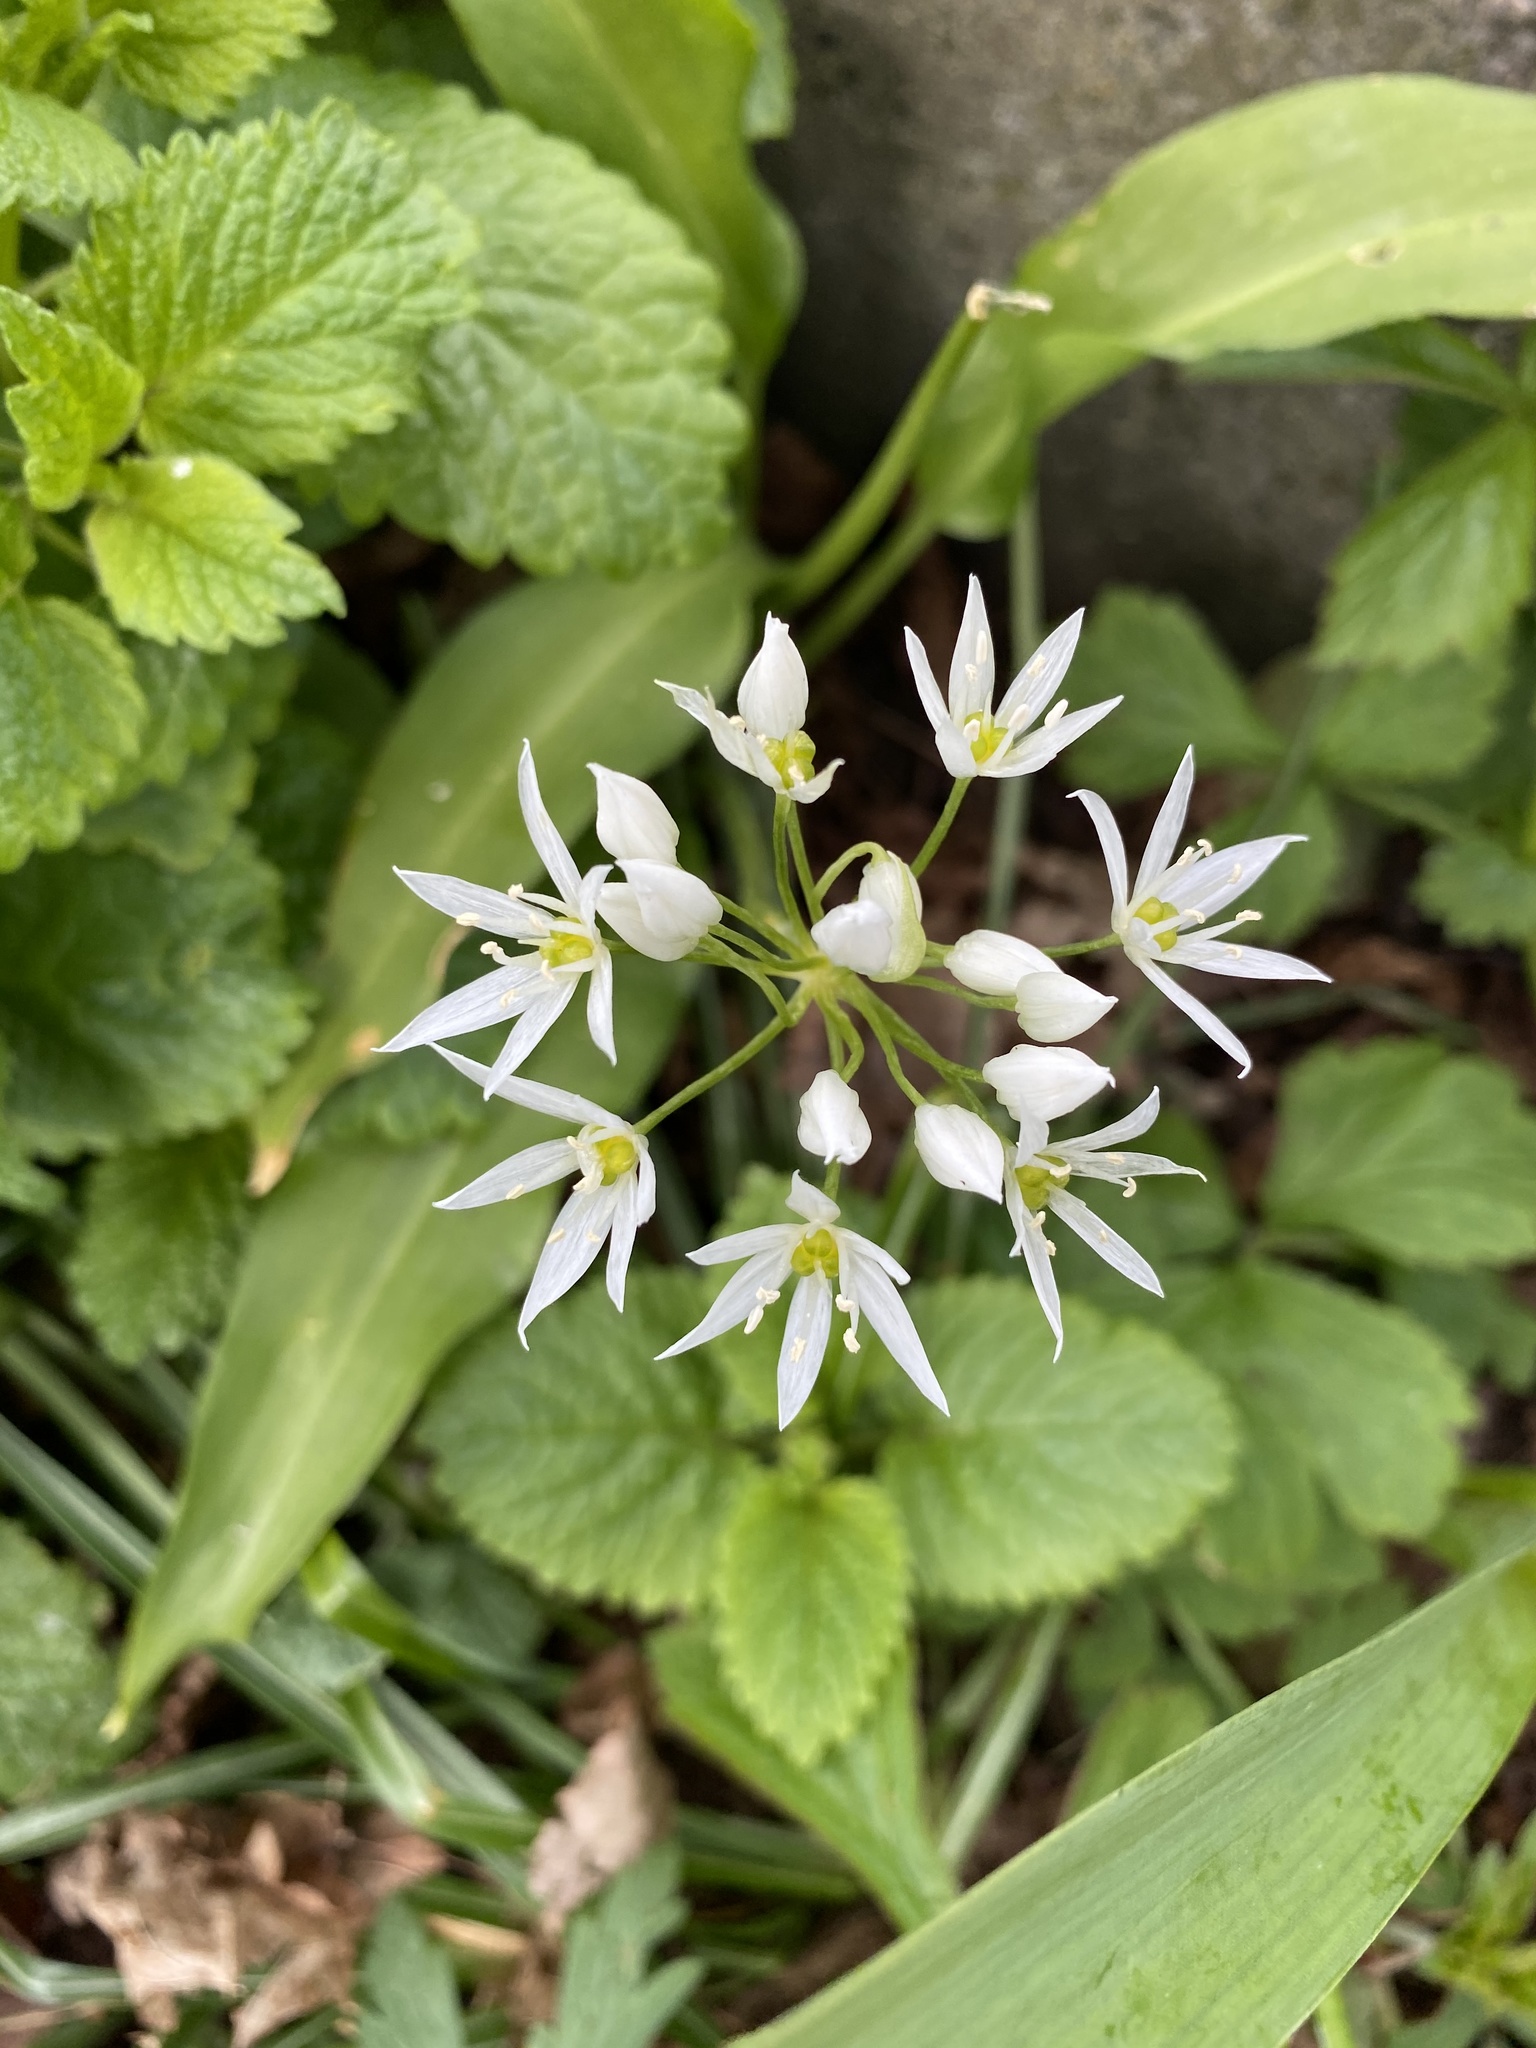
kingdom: Plantae
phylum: Tracheophyta
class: Liliopsida
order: Asparagales
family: Amaryllidaceae
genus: Allium
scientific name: Allium ursinum
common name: Ramsons
